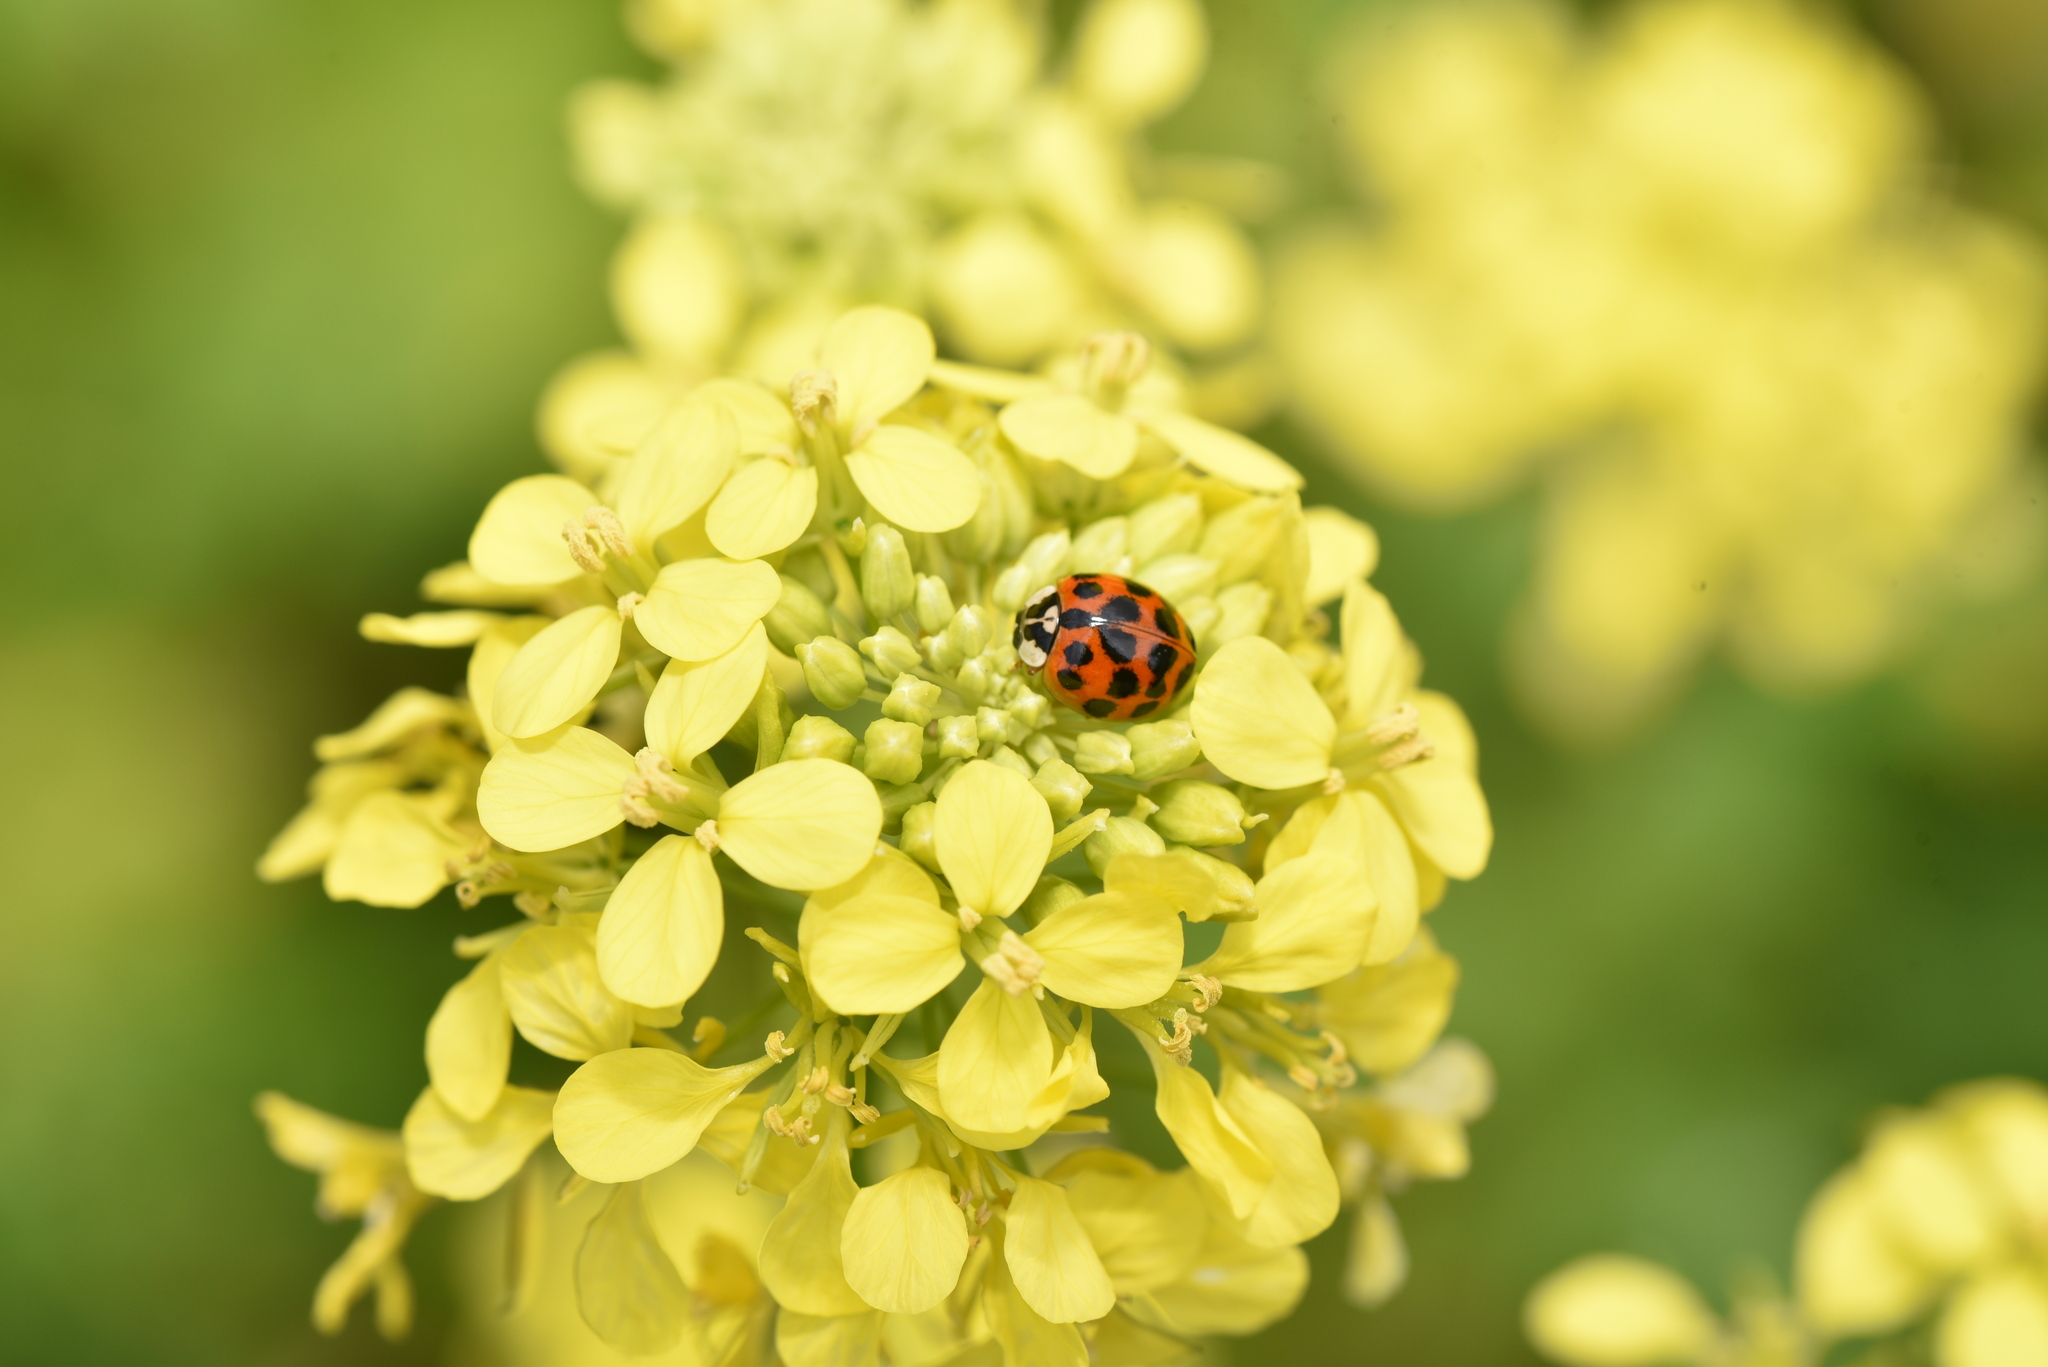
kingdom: Animalia
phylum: Arthropoda
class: Insecta
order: Coleoptera
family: Coccinellidae
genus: Harmonia
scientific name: Harmonia axyridis
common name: Harlequin ladybird
